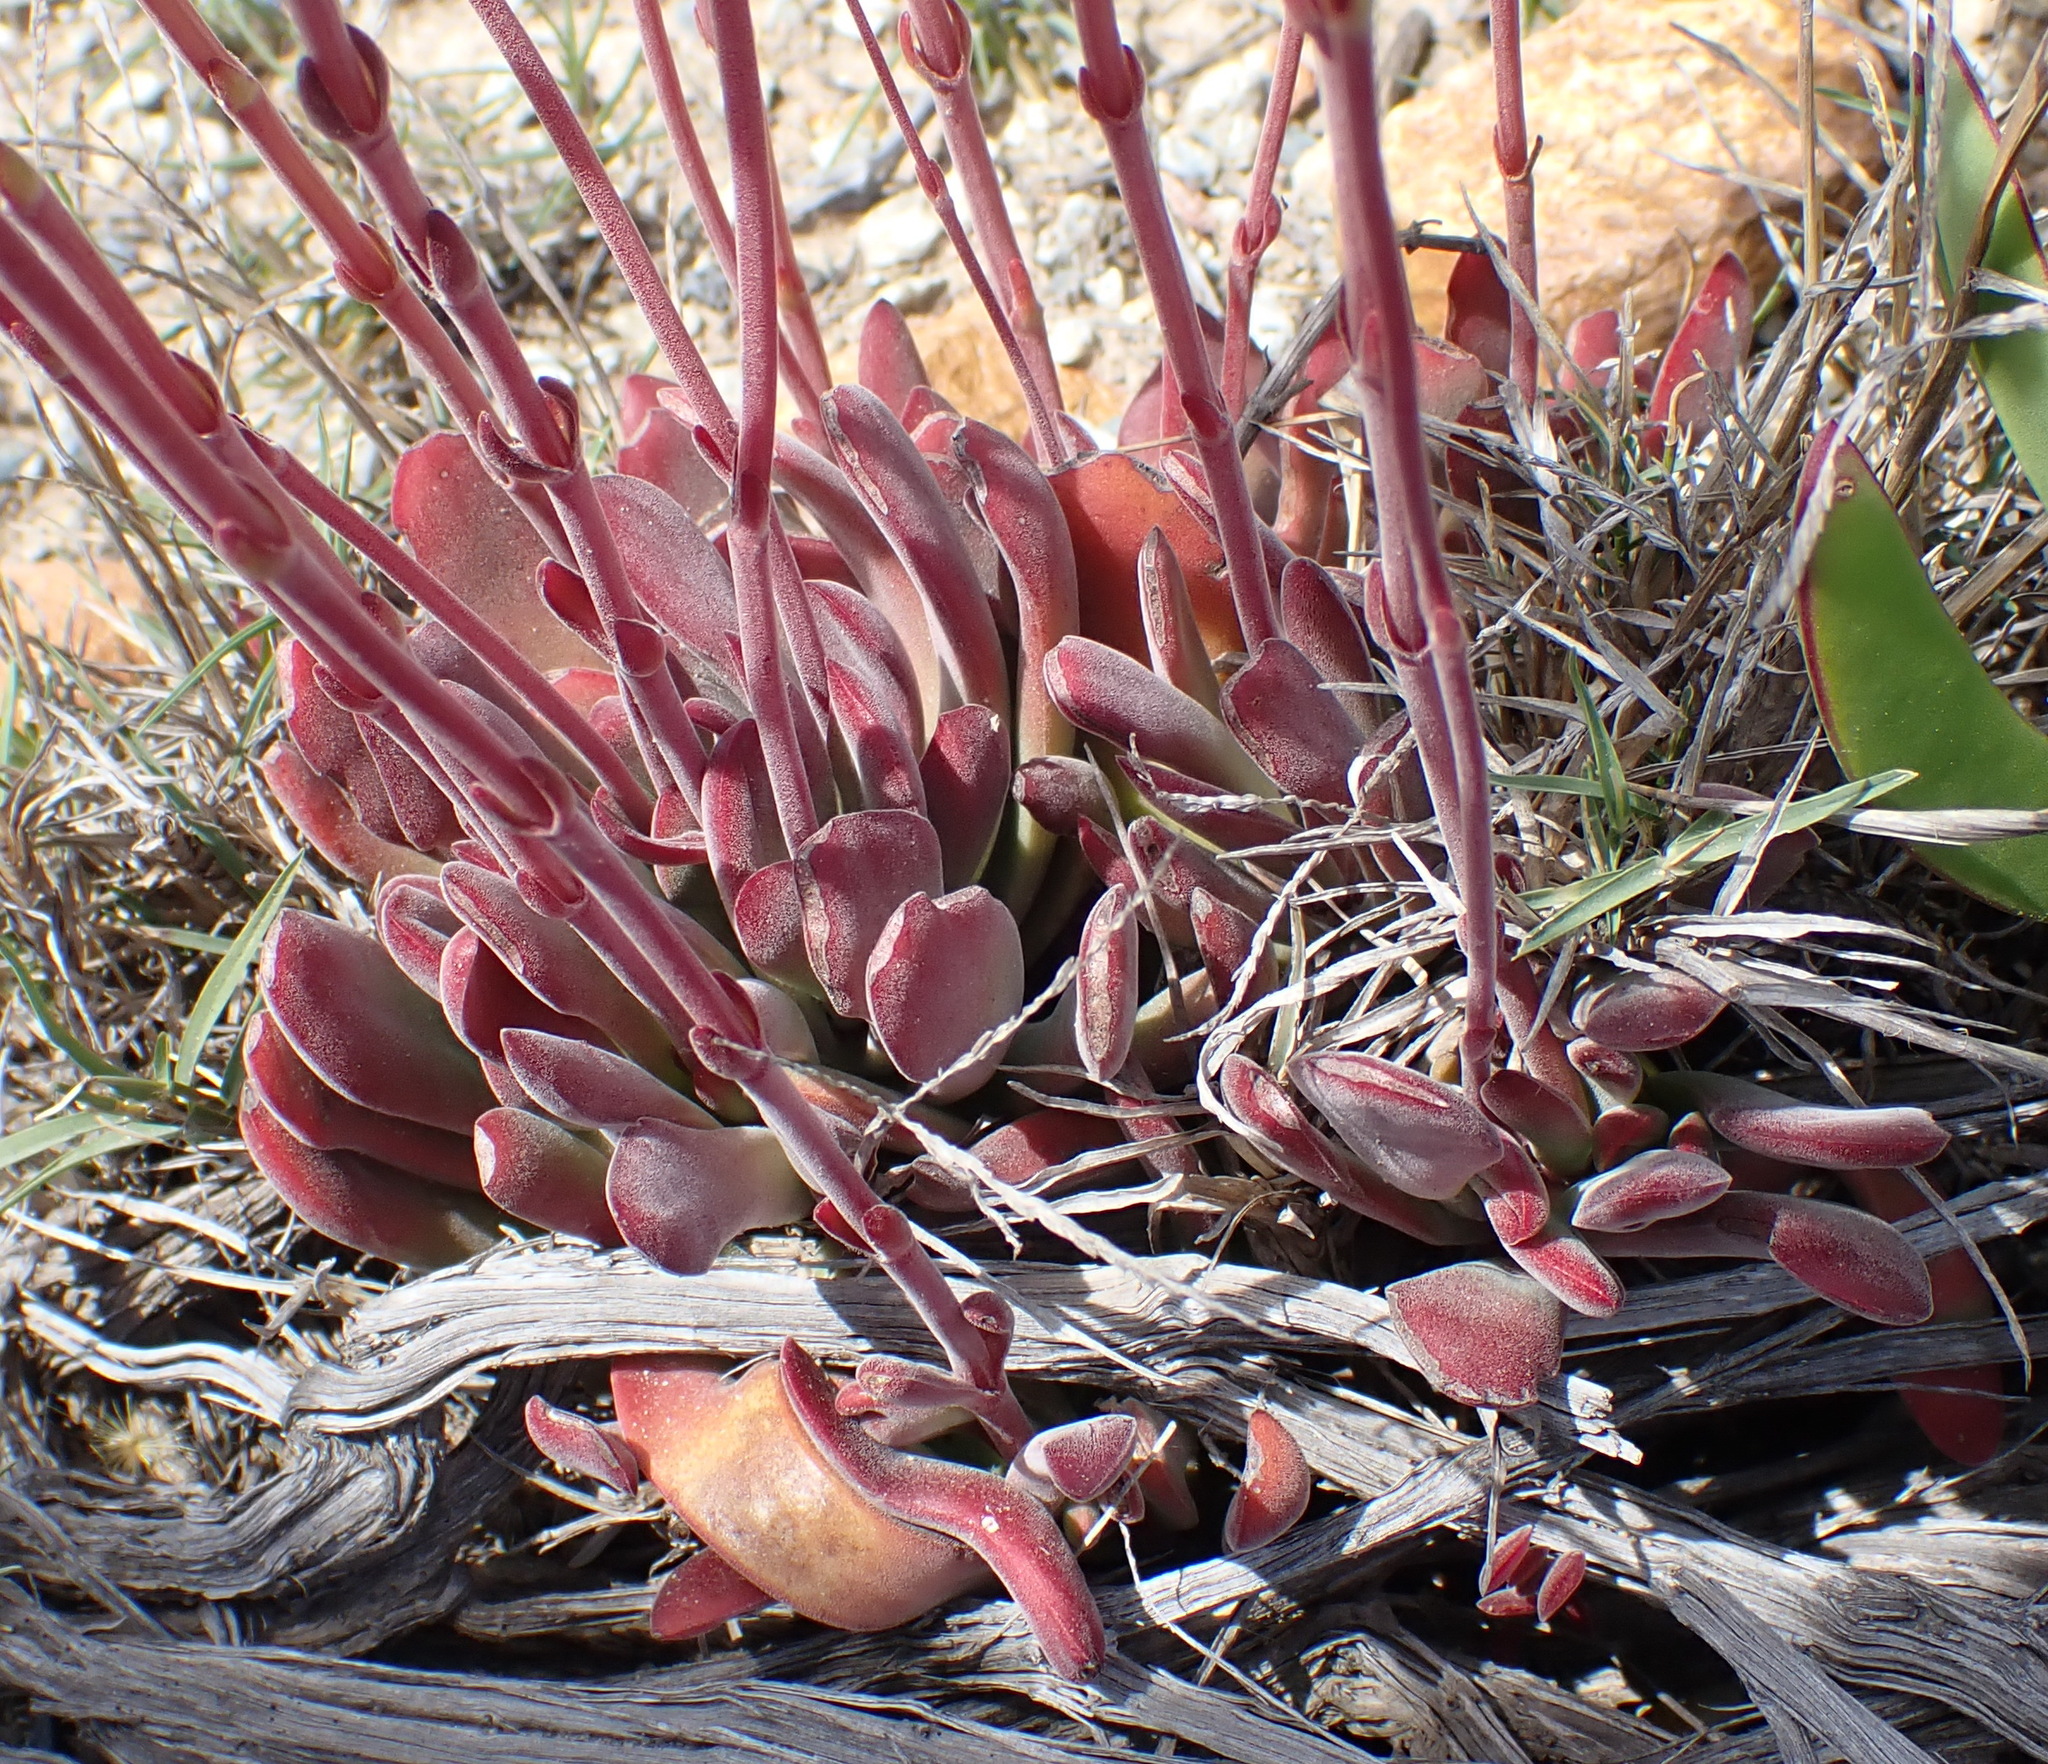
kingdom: Plantae
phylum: Tracheophyta
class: Magnoliopsida
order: Saxifragales
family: Crassulaceae
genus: Crassula
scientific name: Crassula pubescens
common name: Jersey pigmyweed
